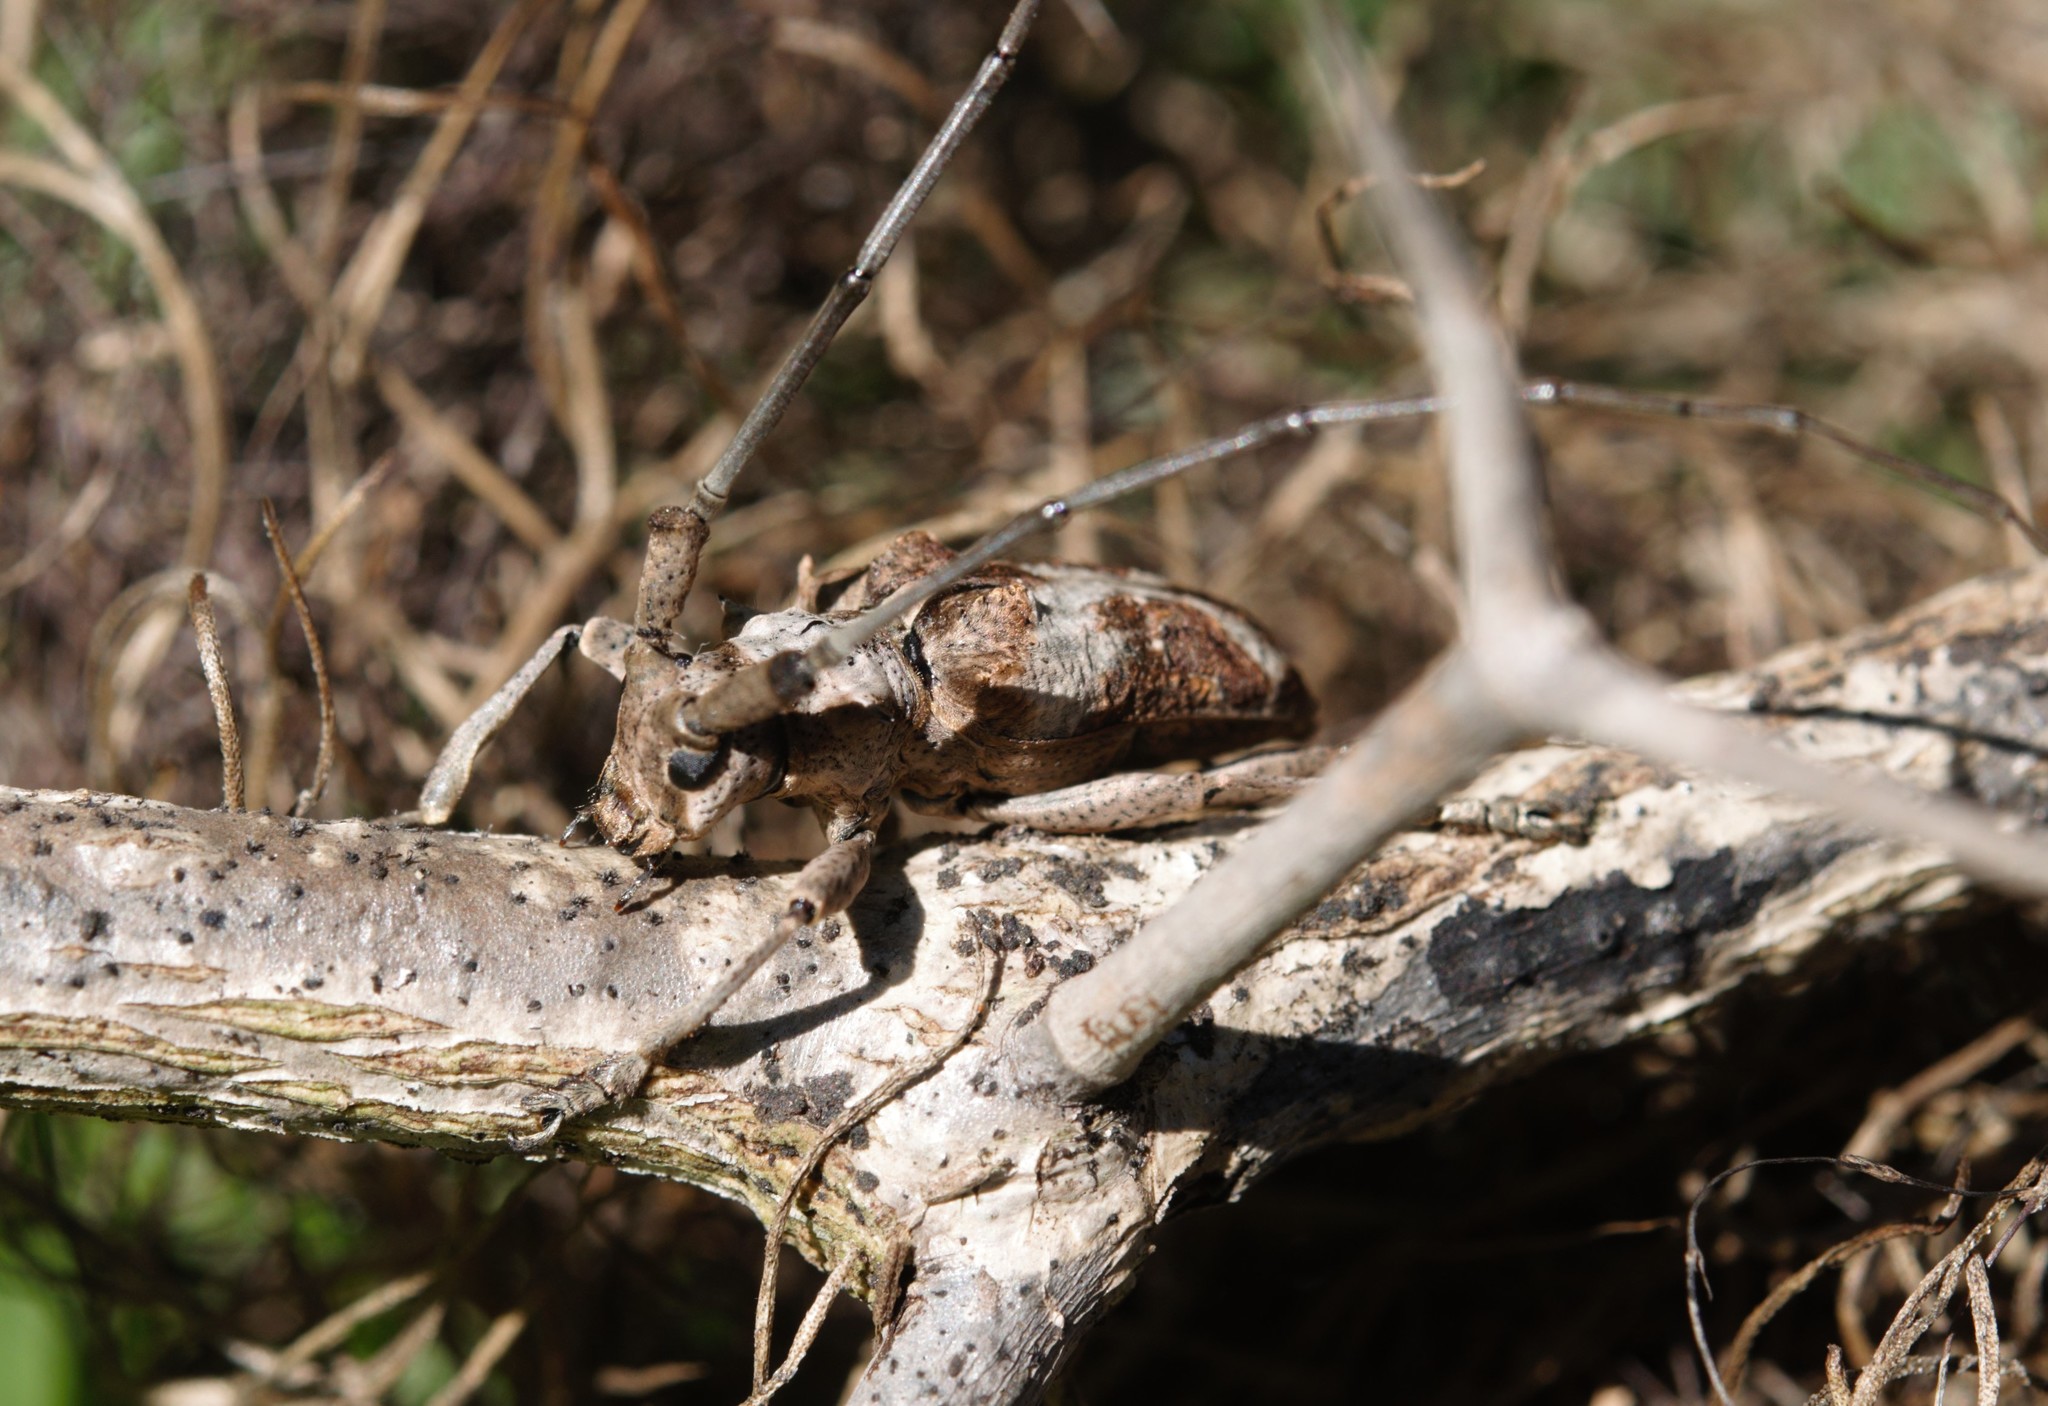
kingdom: Animalia
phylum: Arthropoda
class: Insecta
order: Coleoptera
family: Cerambycidae
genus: Monochamus
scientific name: Monochamus spectabilis
